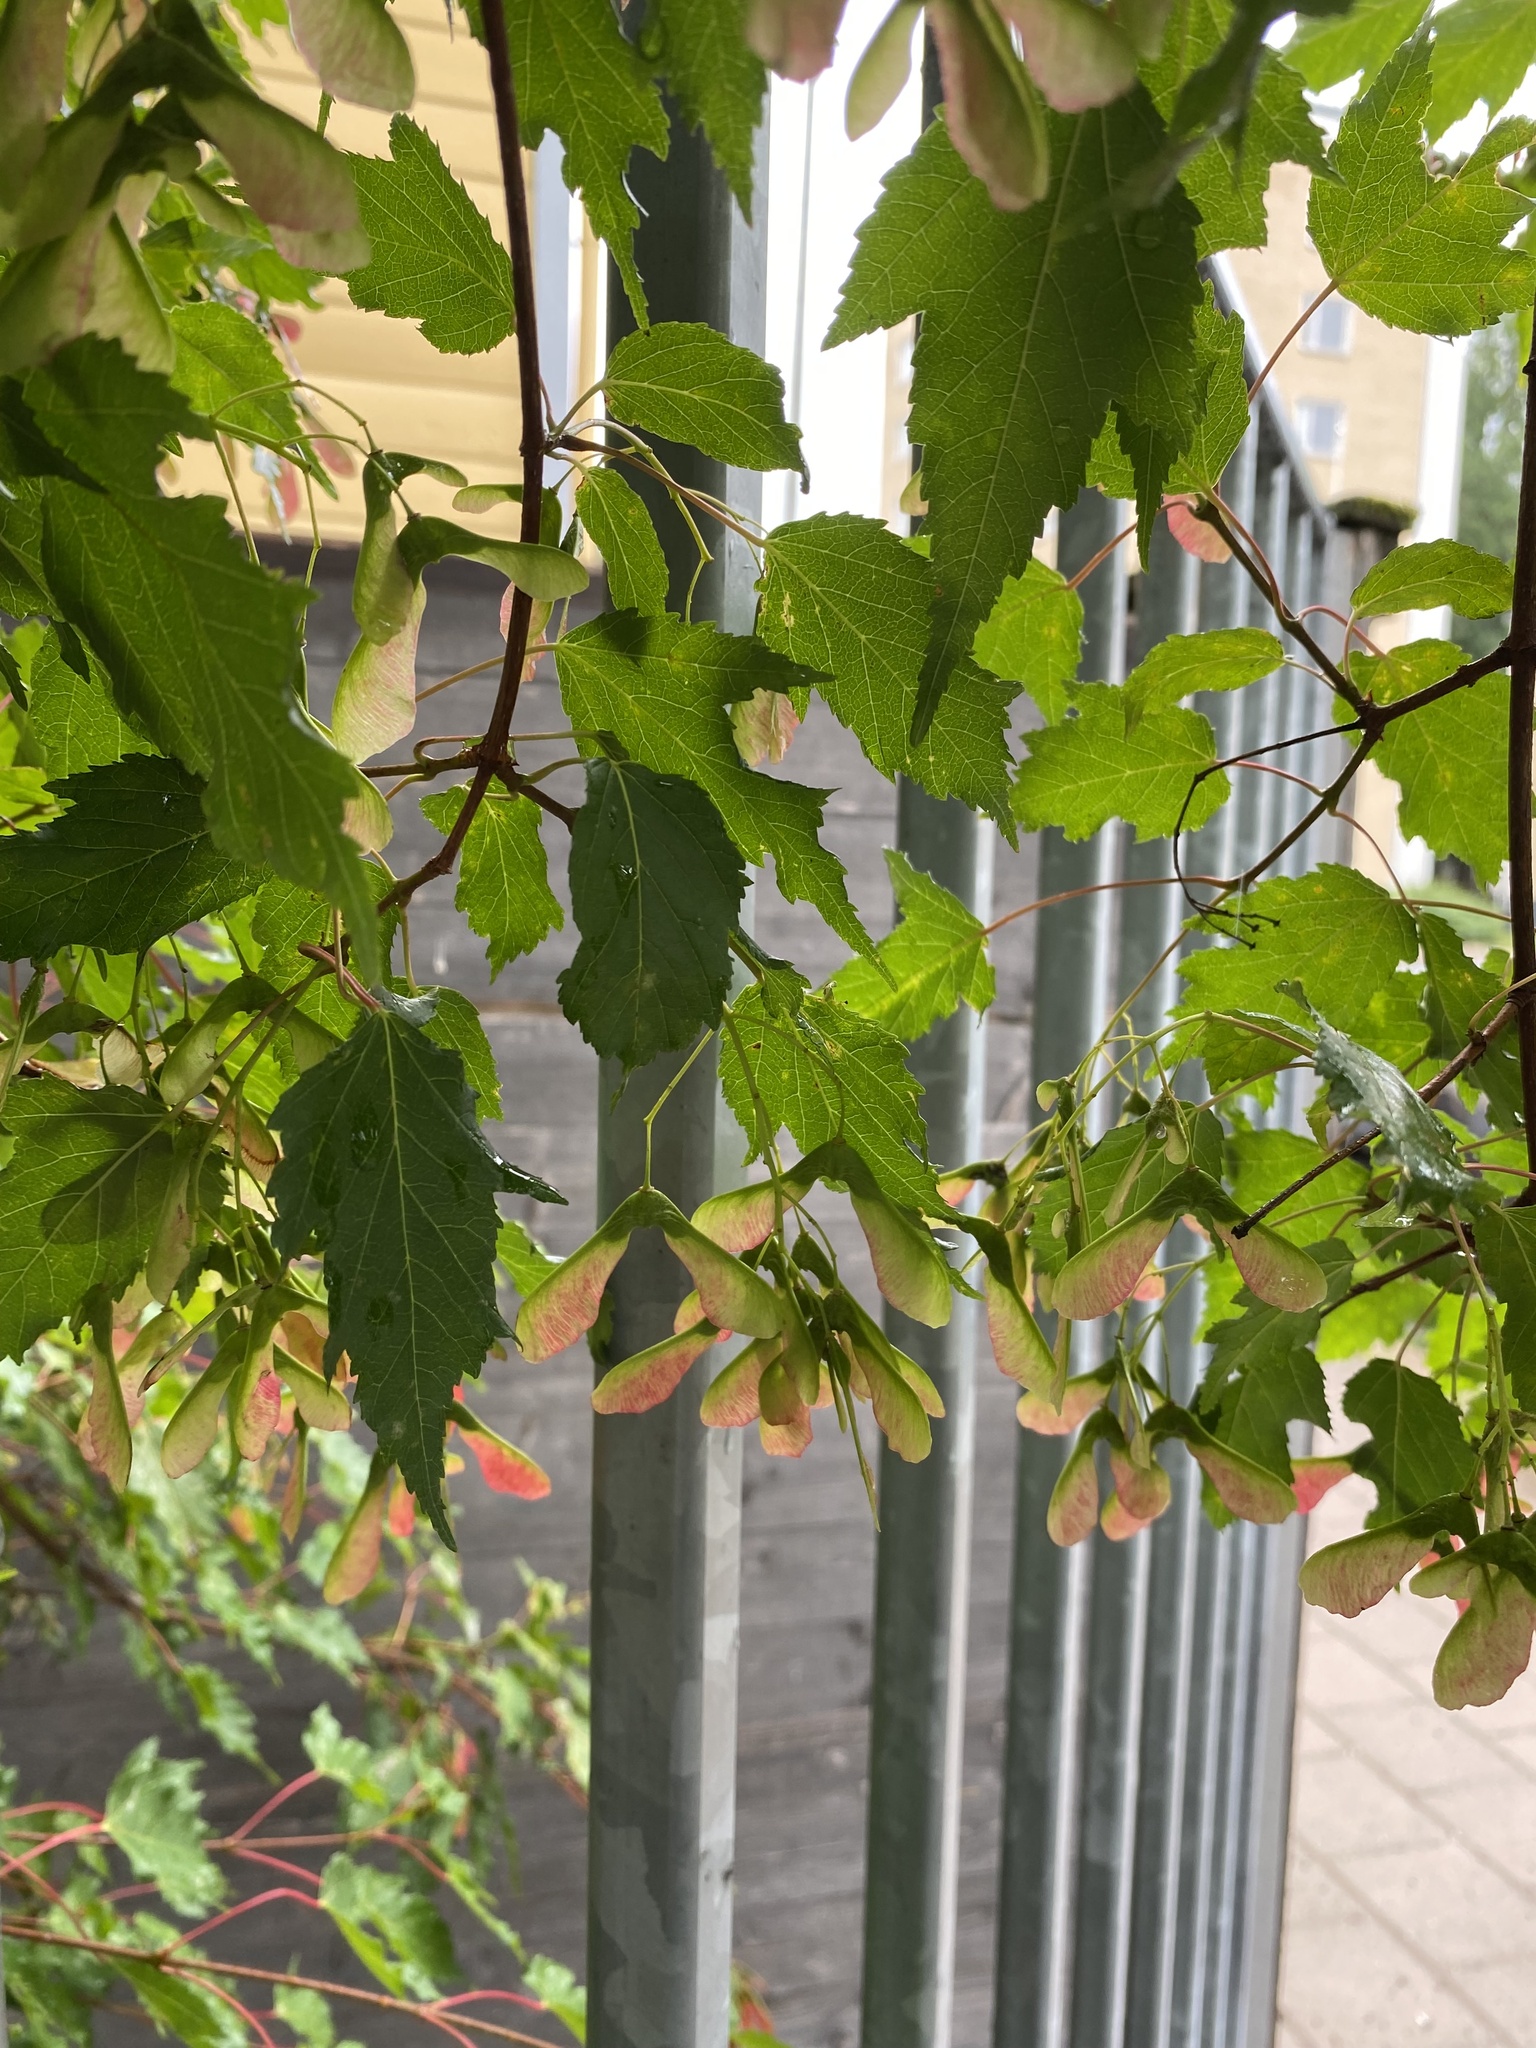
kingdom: Fungi
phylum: Basidiomycota
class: Agaricomycetes
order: Polyporales
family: Polyporaceae
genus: Cerioporus
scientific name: Cerioporus squamosus
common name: Dryad's saddle
